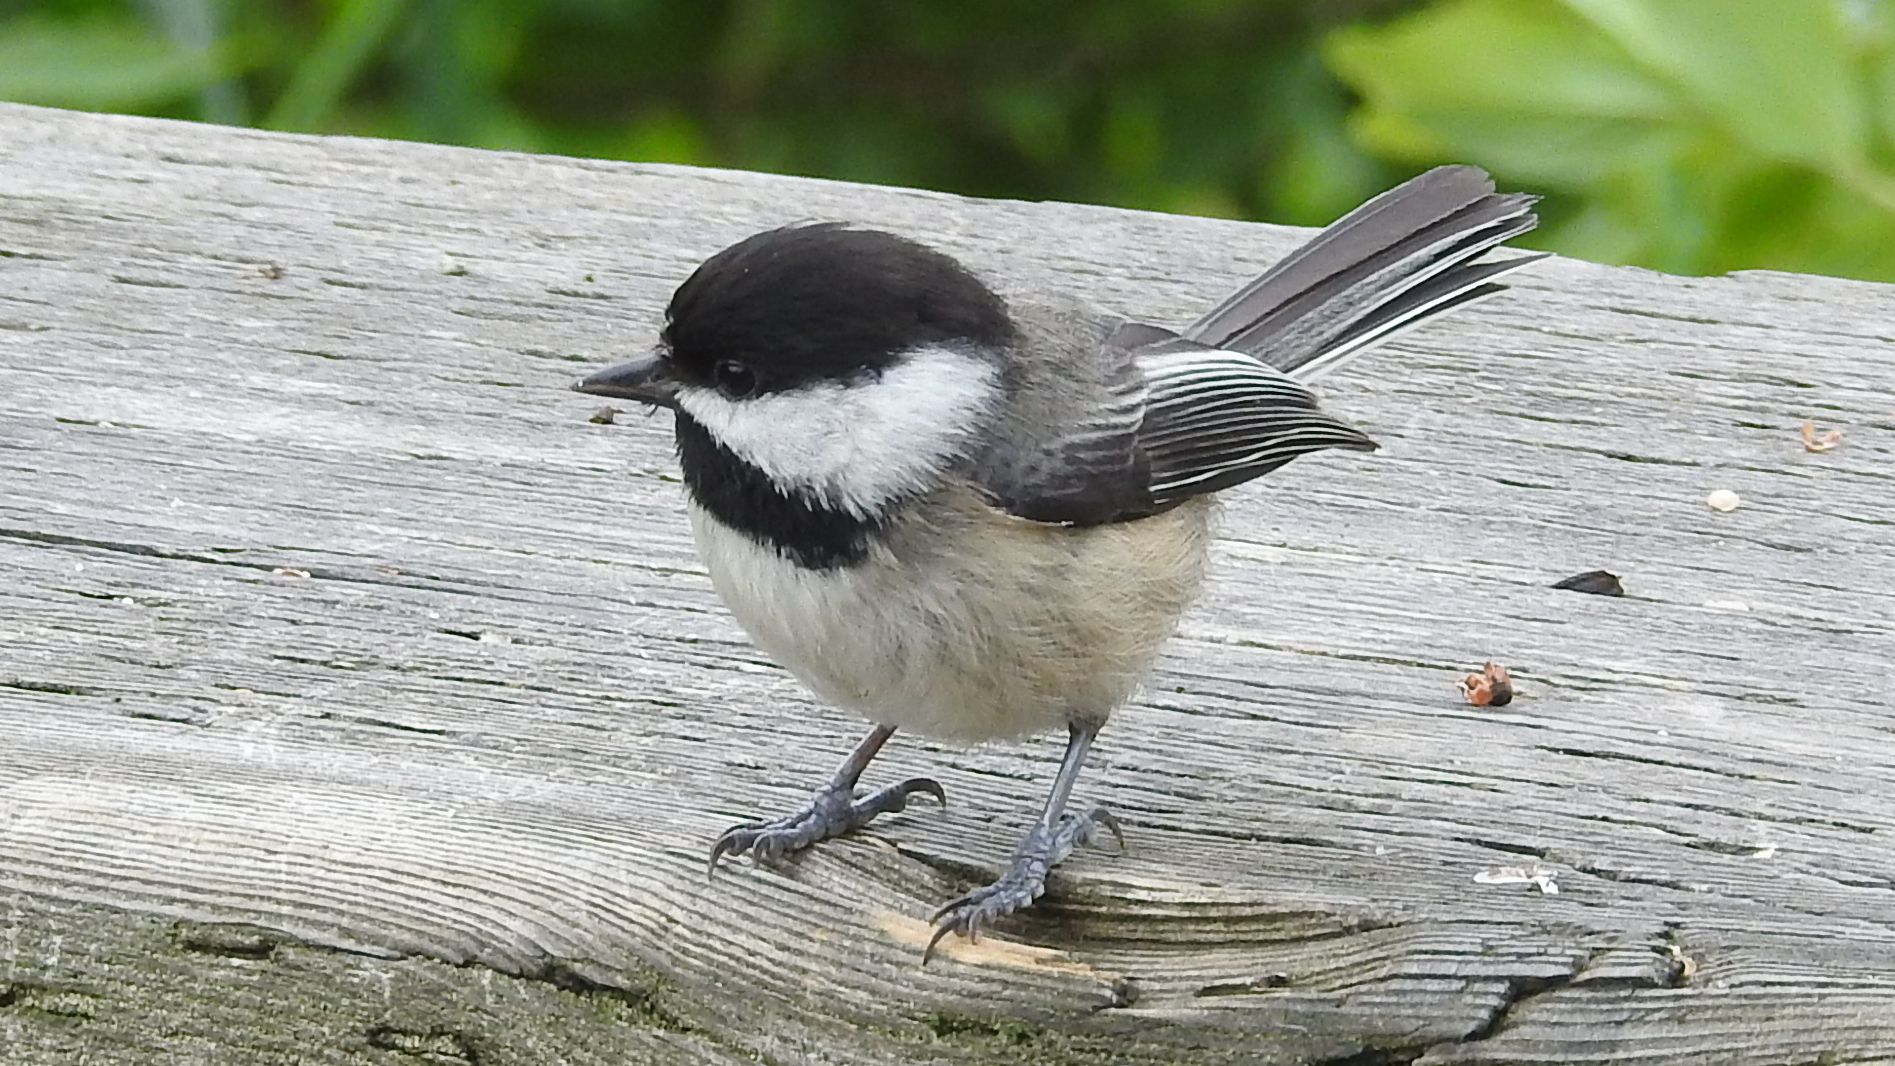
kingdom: Animalia
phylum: Chordata
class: Aves
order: Passeriformes
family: Paridae
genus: Poecile
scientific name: Poecile atricapillus
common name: Black-capped chickadee
